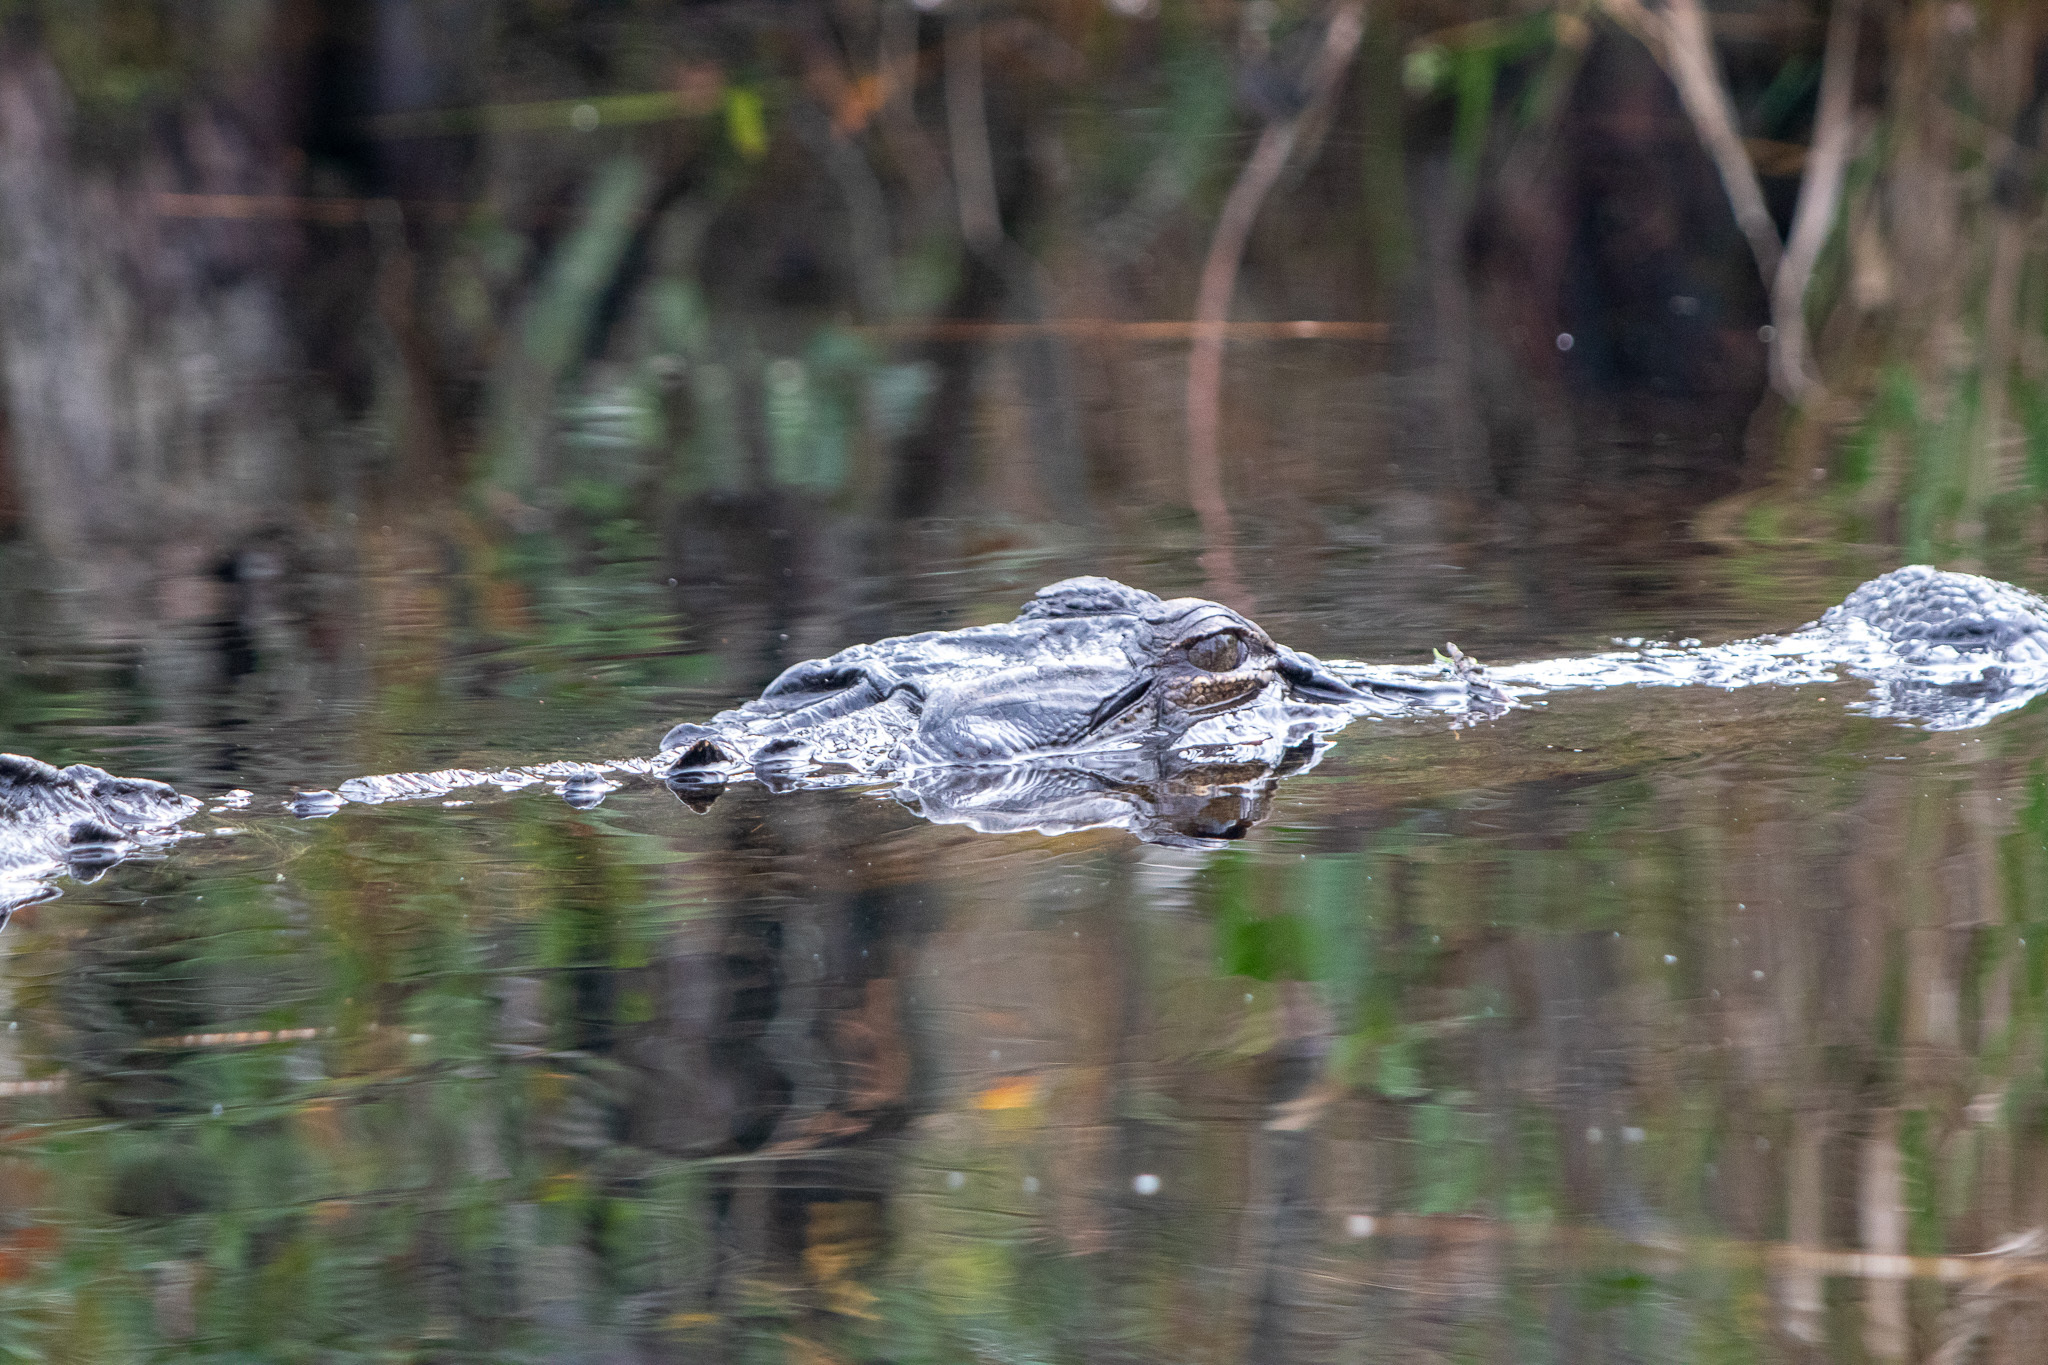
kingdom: Animalia
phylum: Chordata
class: Crocodylia
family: Alligatoridae
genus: Alligator
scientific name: Alligator mississippiensis
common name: American alligator
